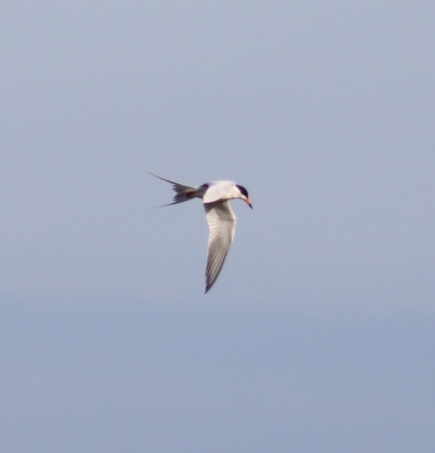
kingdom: Animalia
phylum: Chordata
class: Aves
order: Charadriiformes
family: Laridae
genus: Sterna
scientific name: Sterna forsteri
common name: Forster's tern
